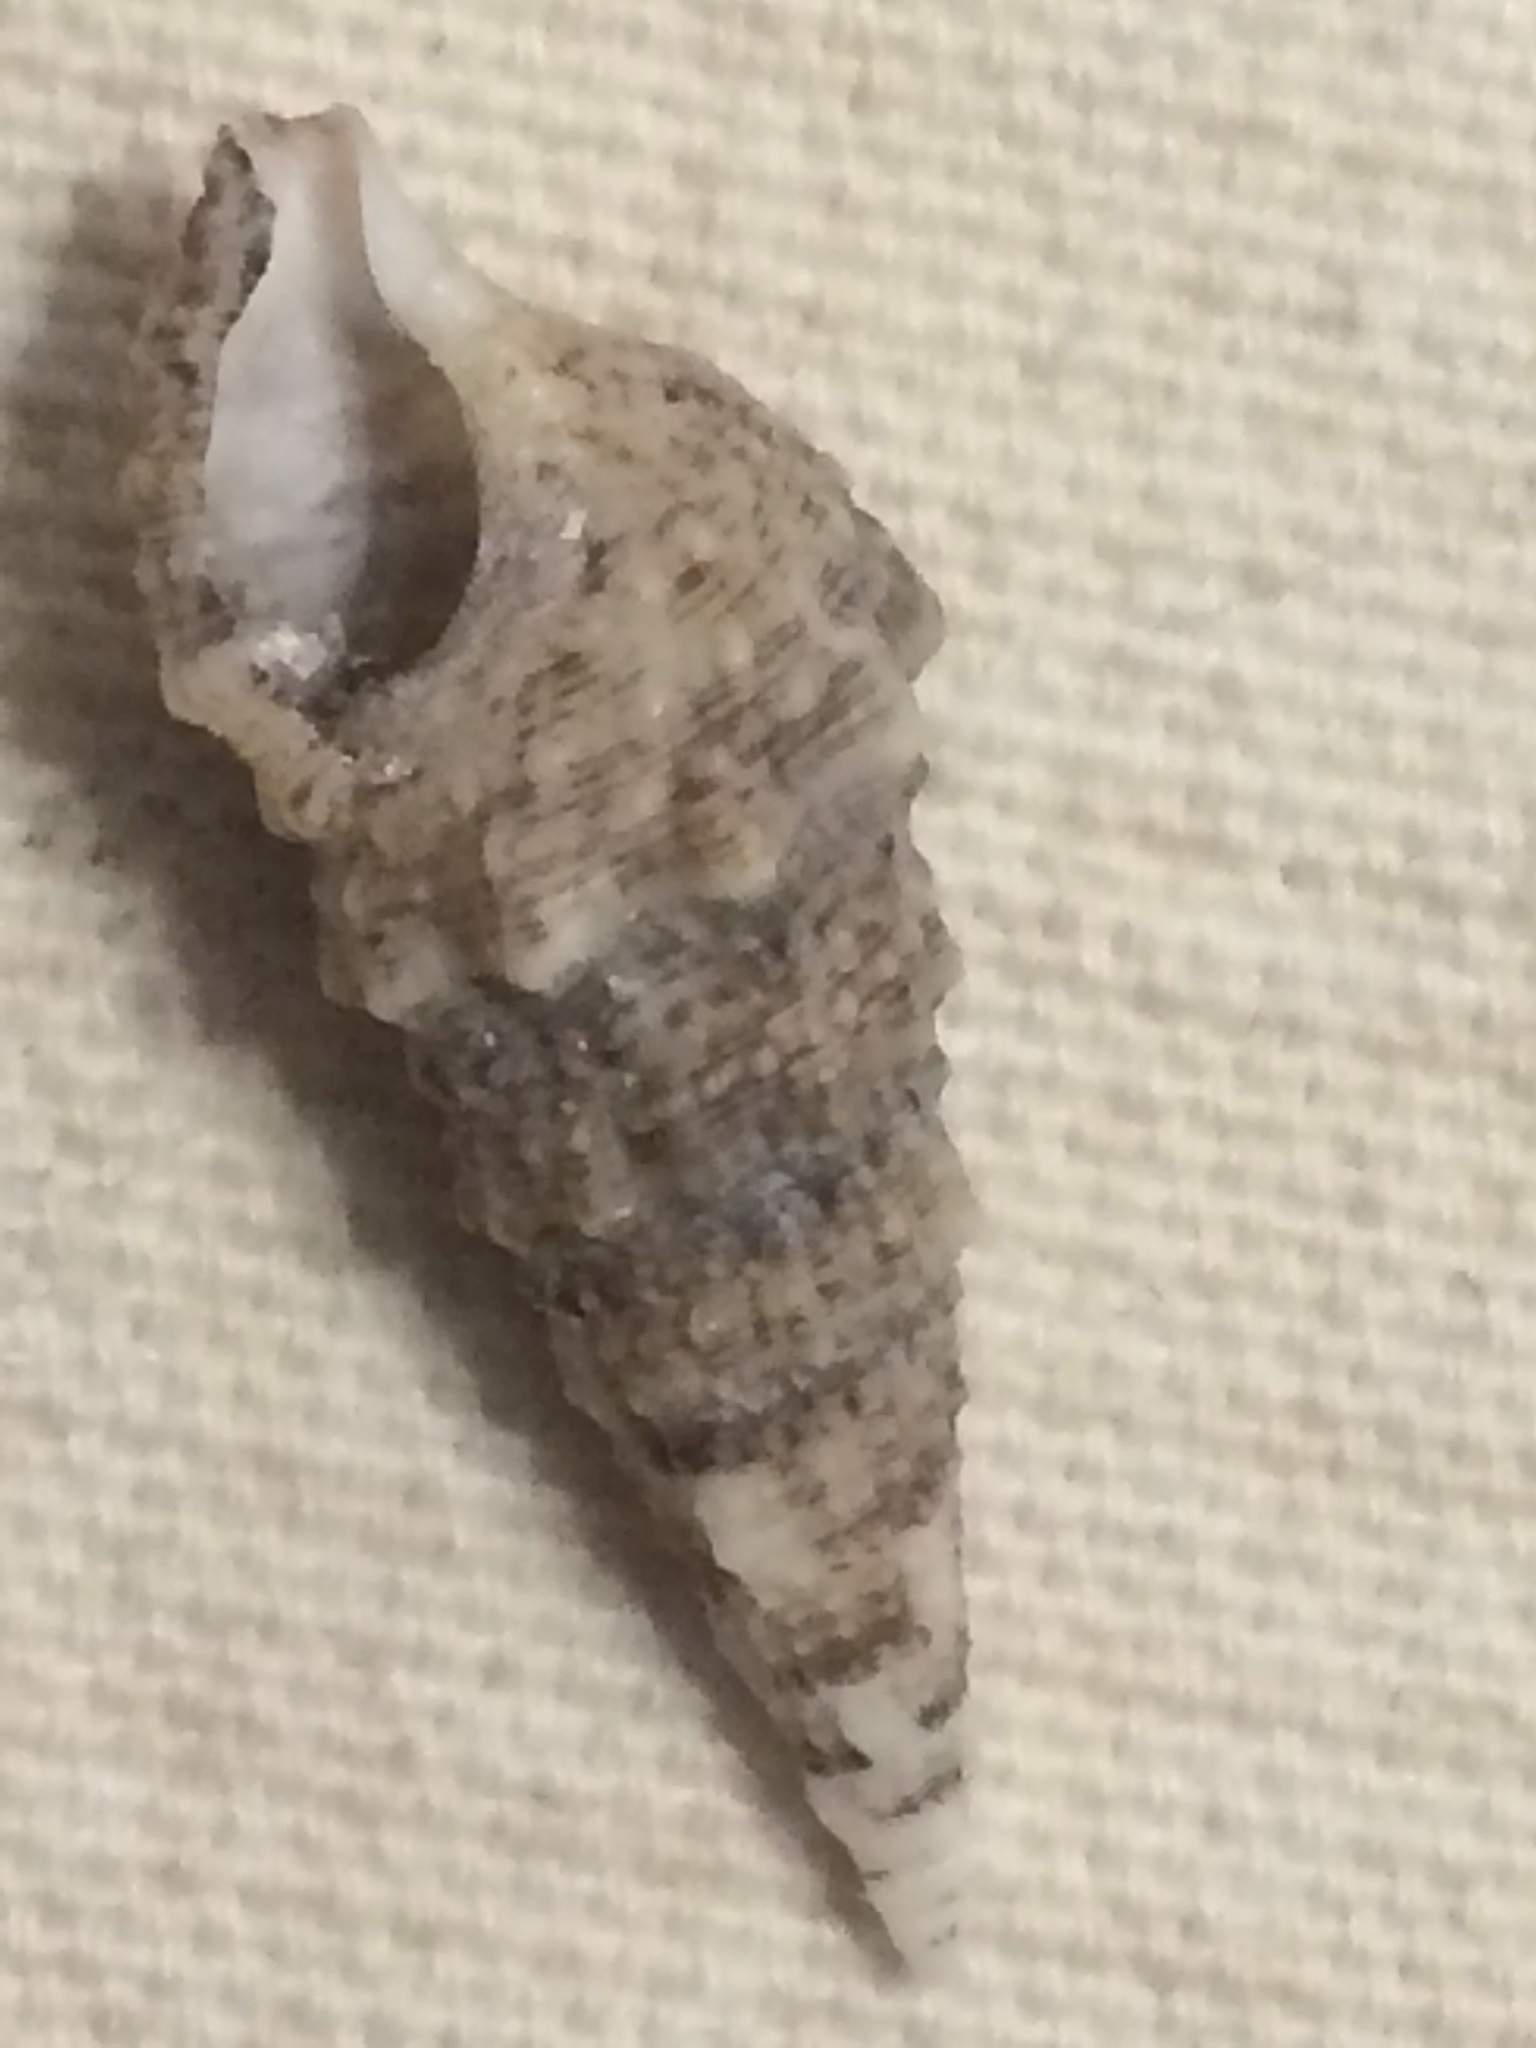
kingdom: Animalia
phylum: Mollusca
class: Gastropoda
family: Cerithiidae
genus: Cerithium
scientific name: Cerithium atratum
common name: Dark cerith
